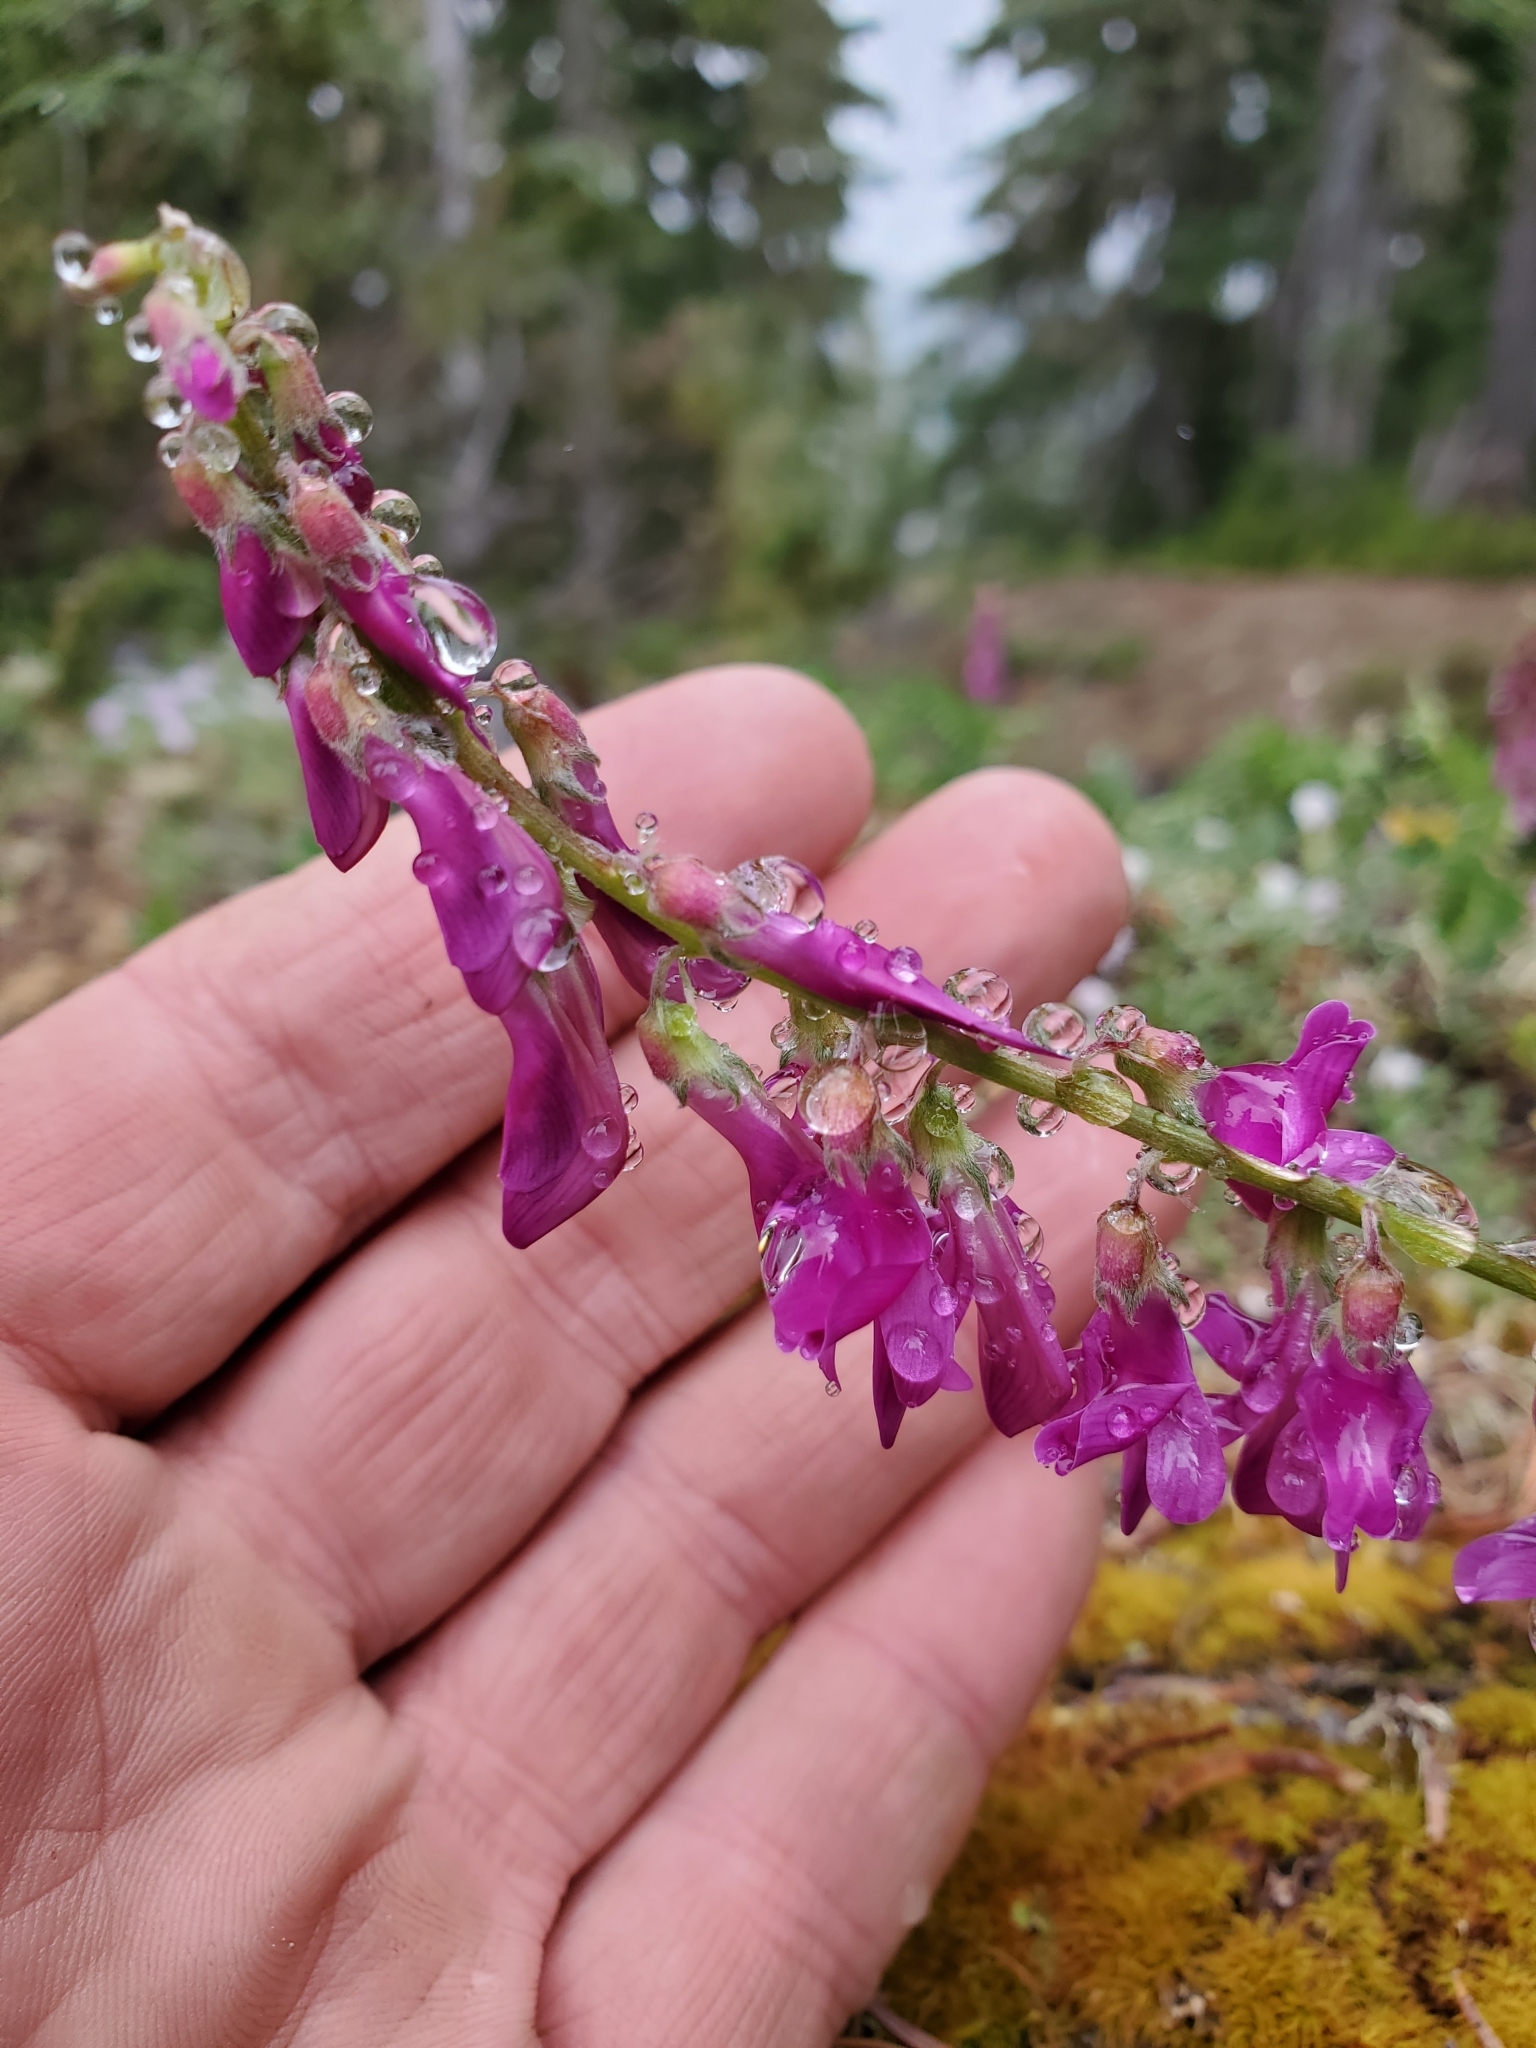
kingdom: Plantae
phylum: Tracheophyta
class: Magnoliopsida
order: Fabales
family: Fabaceae
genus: Hedysarum
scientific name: Hedysarum occidentale
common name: Western hedysarum
